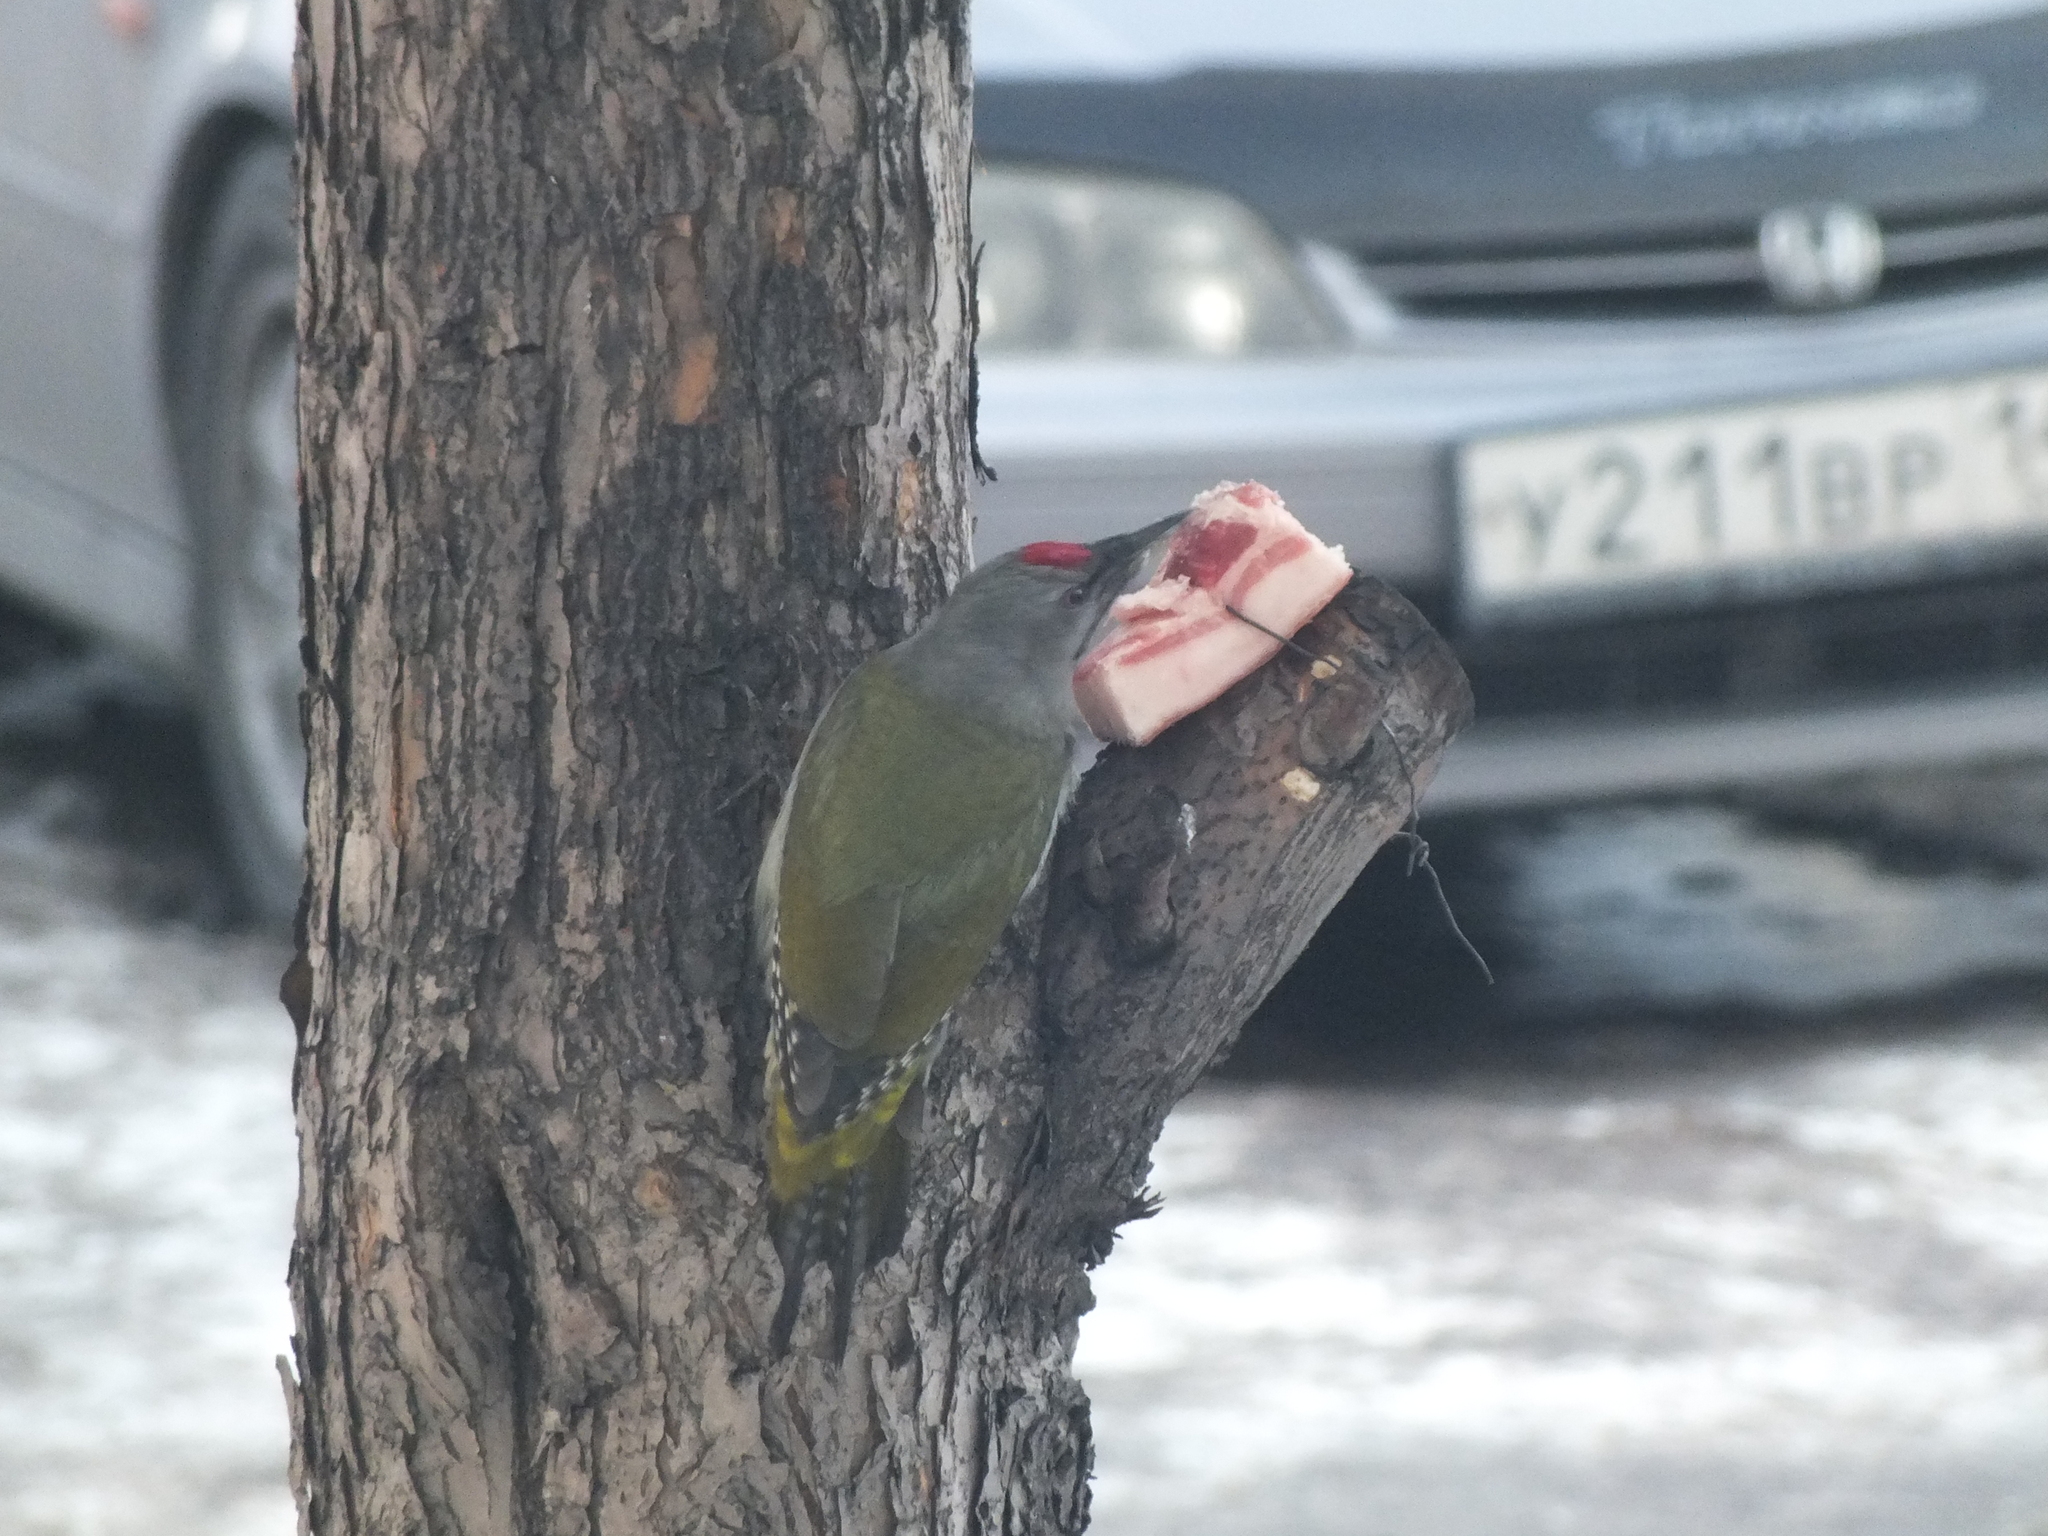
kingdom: Animalia
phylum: Chordata
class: Aves
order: Piciformes
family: Picidae
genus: Picus
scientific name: Picus canus
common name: Grey-headed woodpecker
